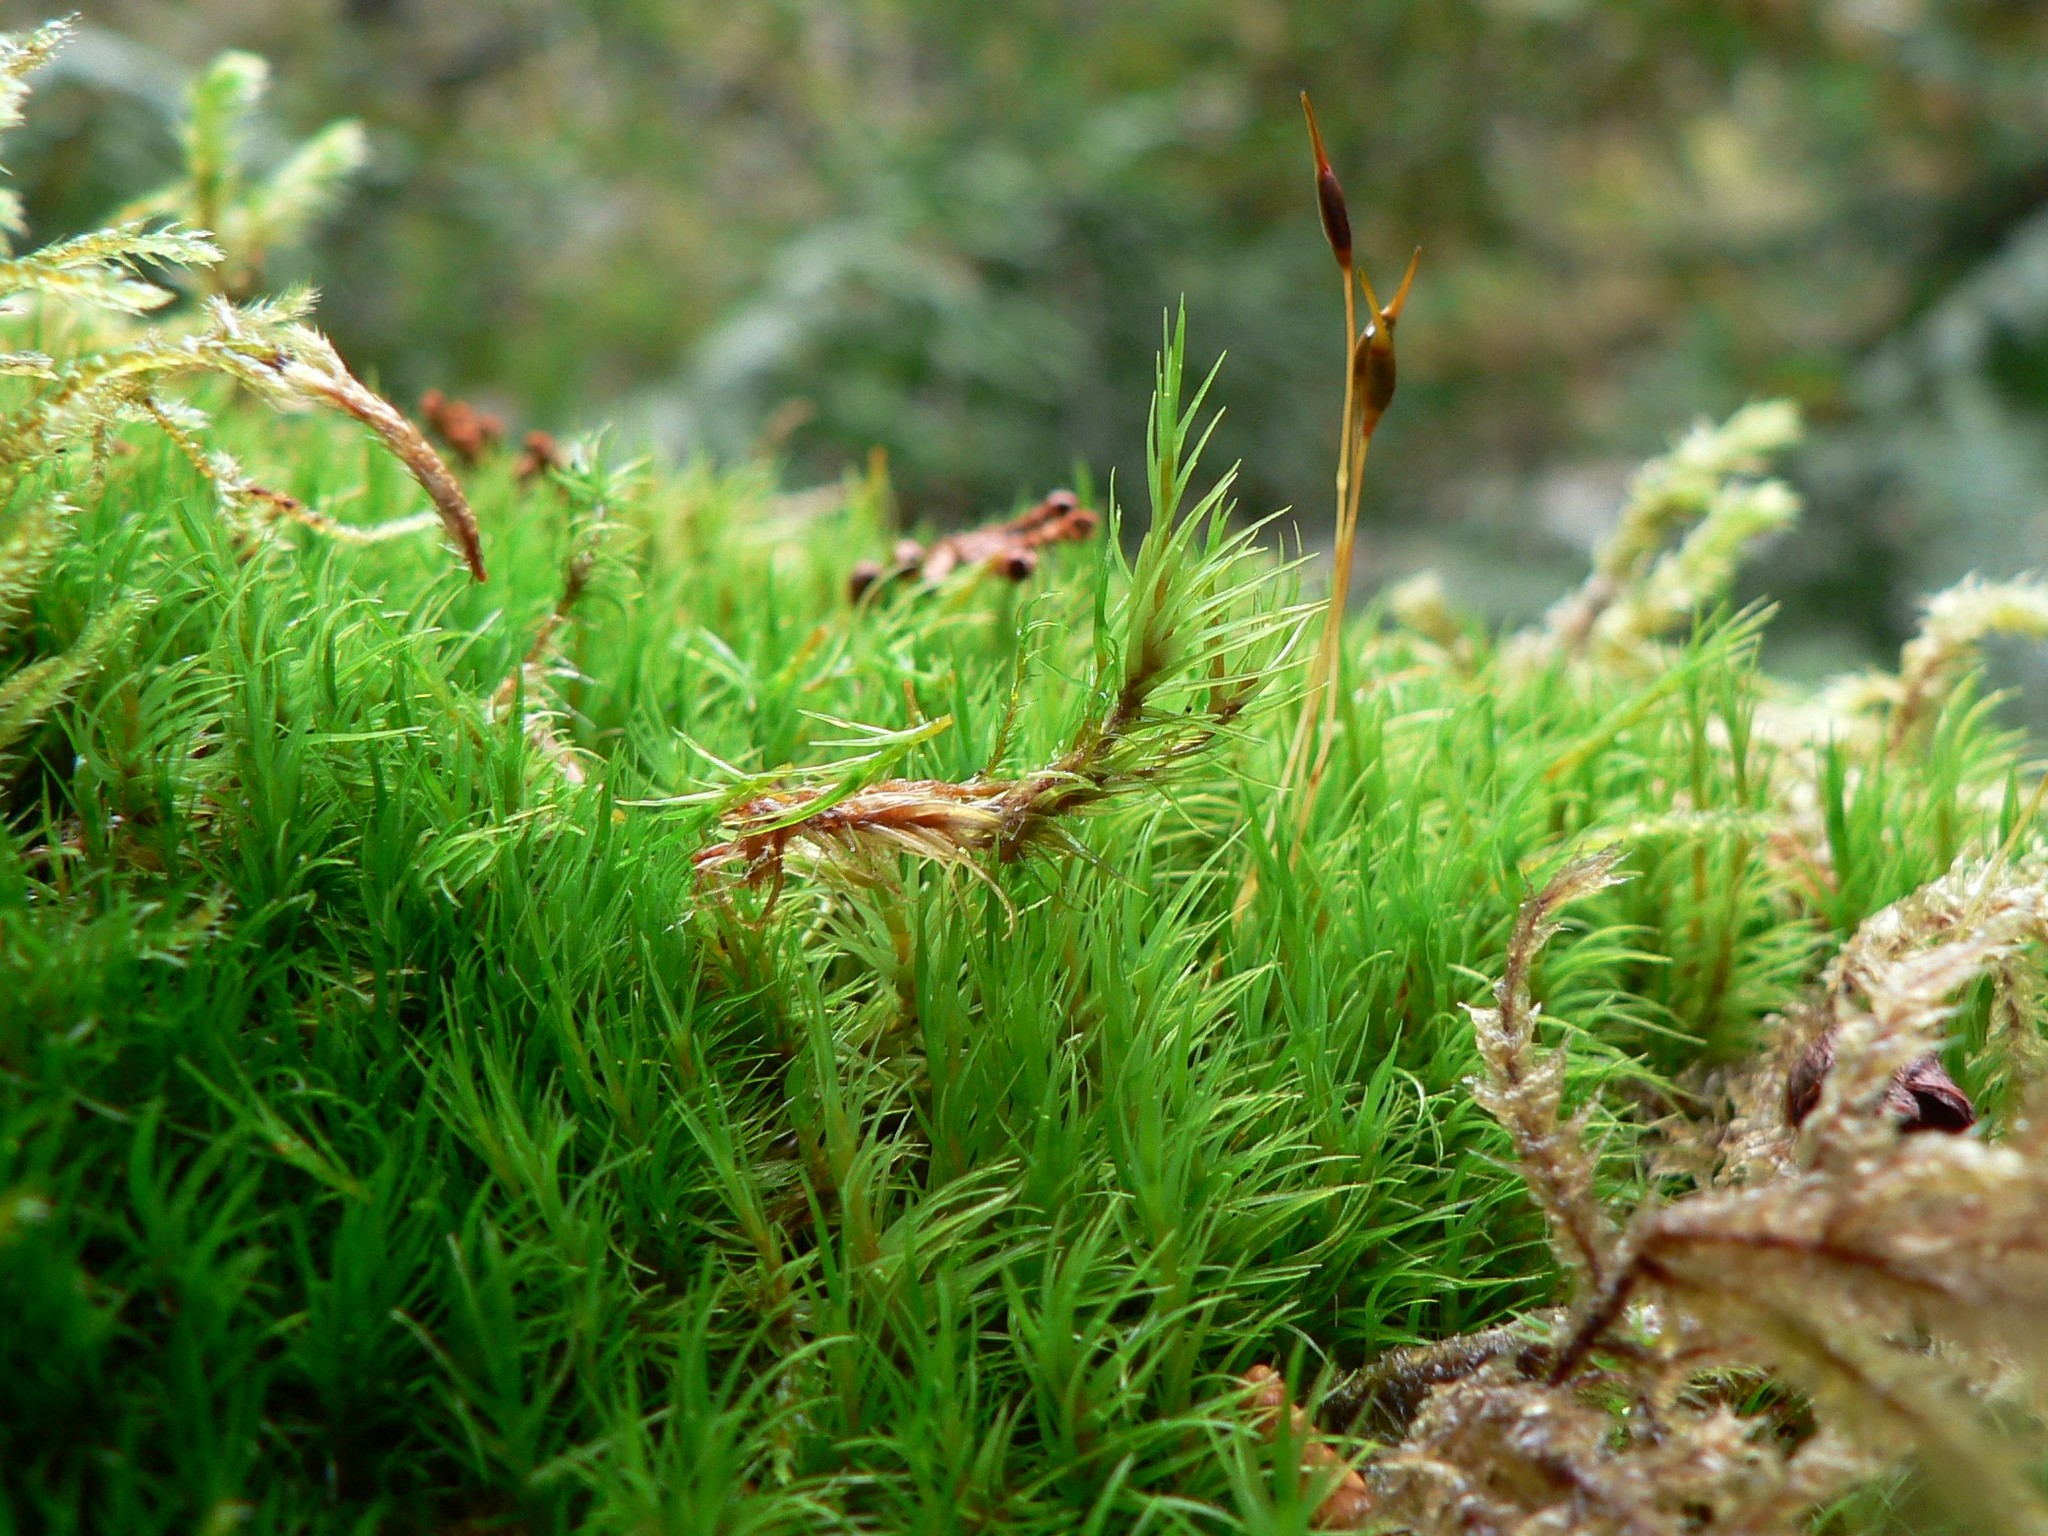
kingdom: Plantae
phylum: Bryophyta
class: Bryopsida
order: Dicranales
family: Dicranaceae
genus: Dicranum
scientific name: Dicranum scoparium
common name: Broom fork-moss
